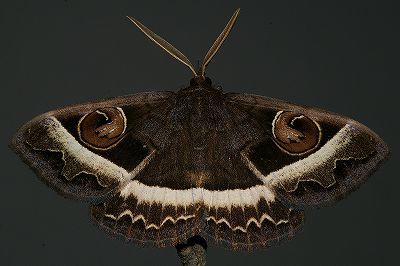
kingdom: Animalia
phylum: Arthropoda
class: Insecta
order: Lepidoptera
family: Erebidae
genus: Metopta
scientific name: Metopta rectifasciata
